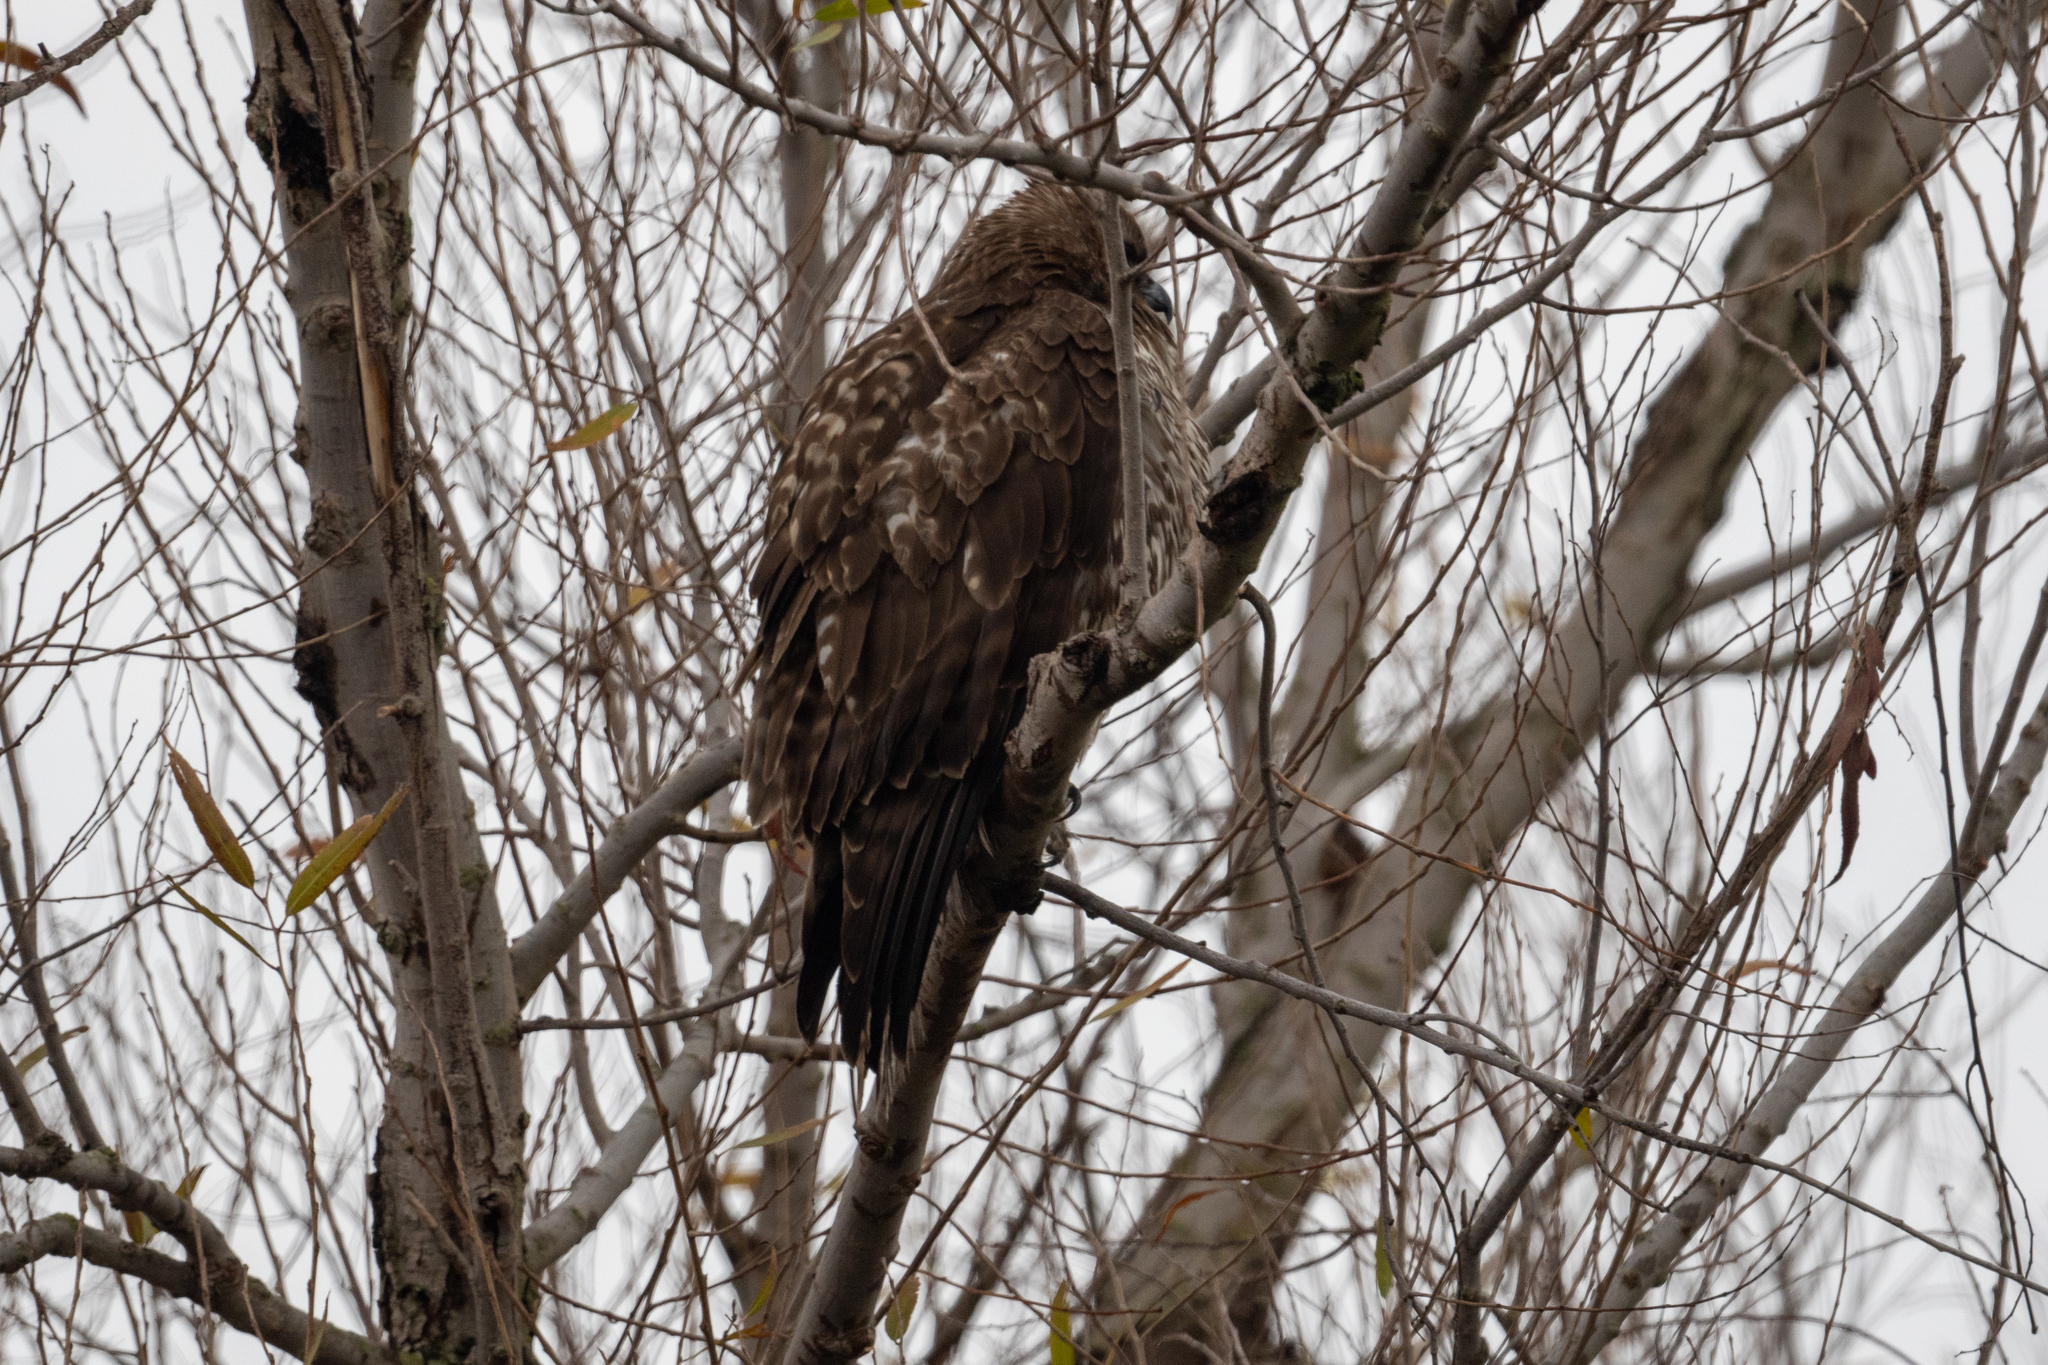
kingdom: Animalia
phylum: Chordata
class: Aves
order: Accipitriformes
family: Accipitridae
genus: Buteo
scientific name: Buteo jamaicensis
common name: Red-tailed hawk
